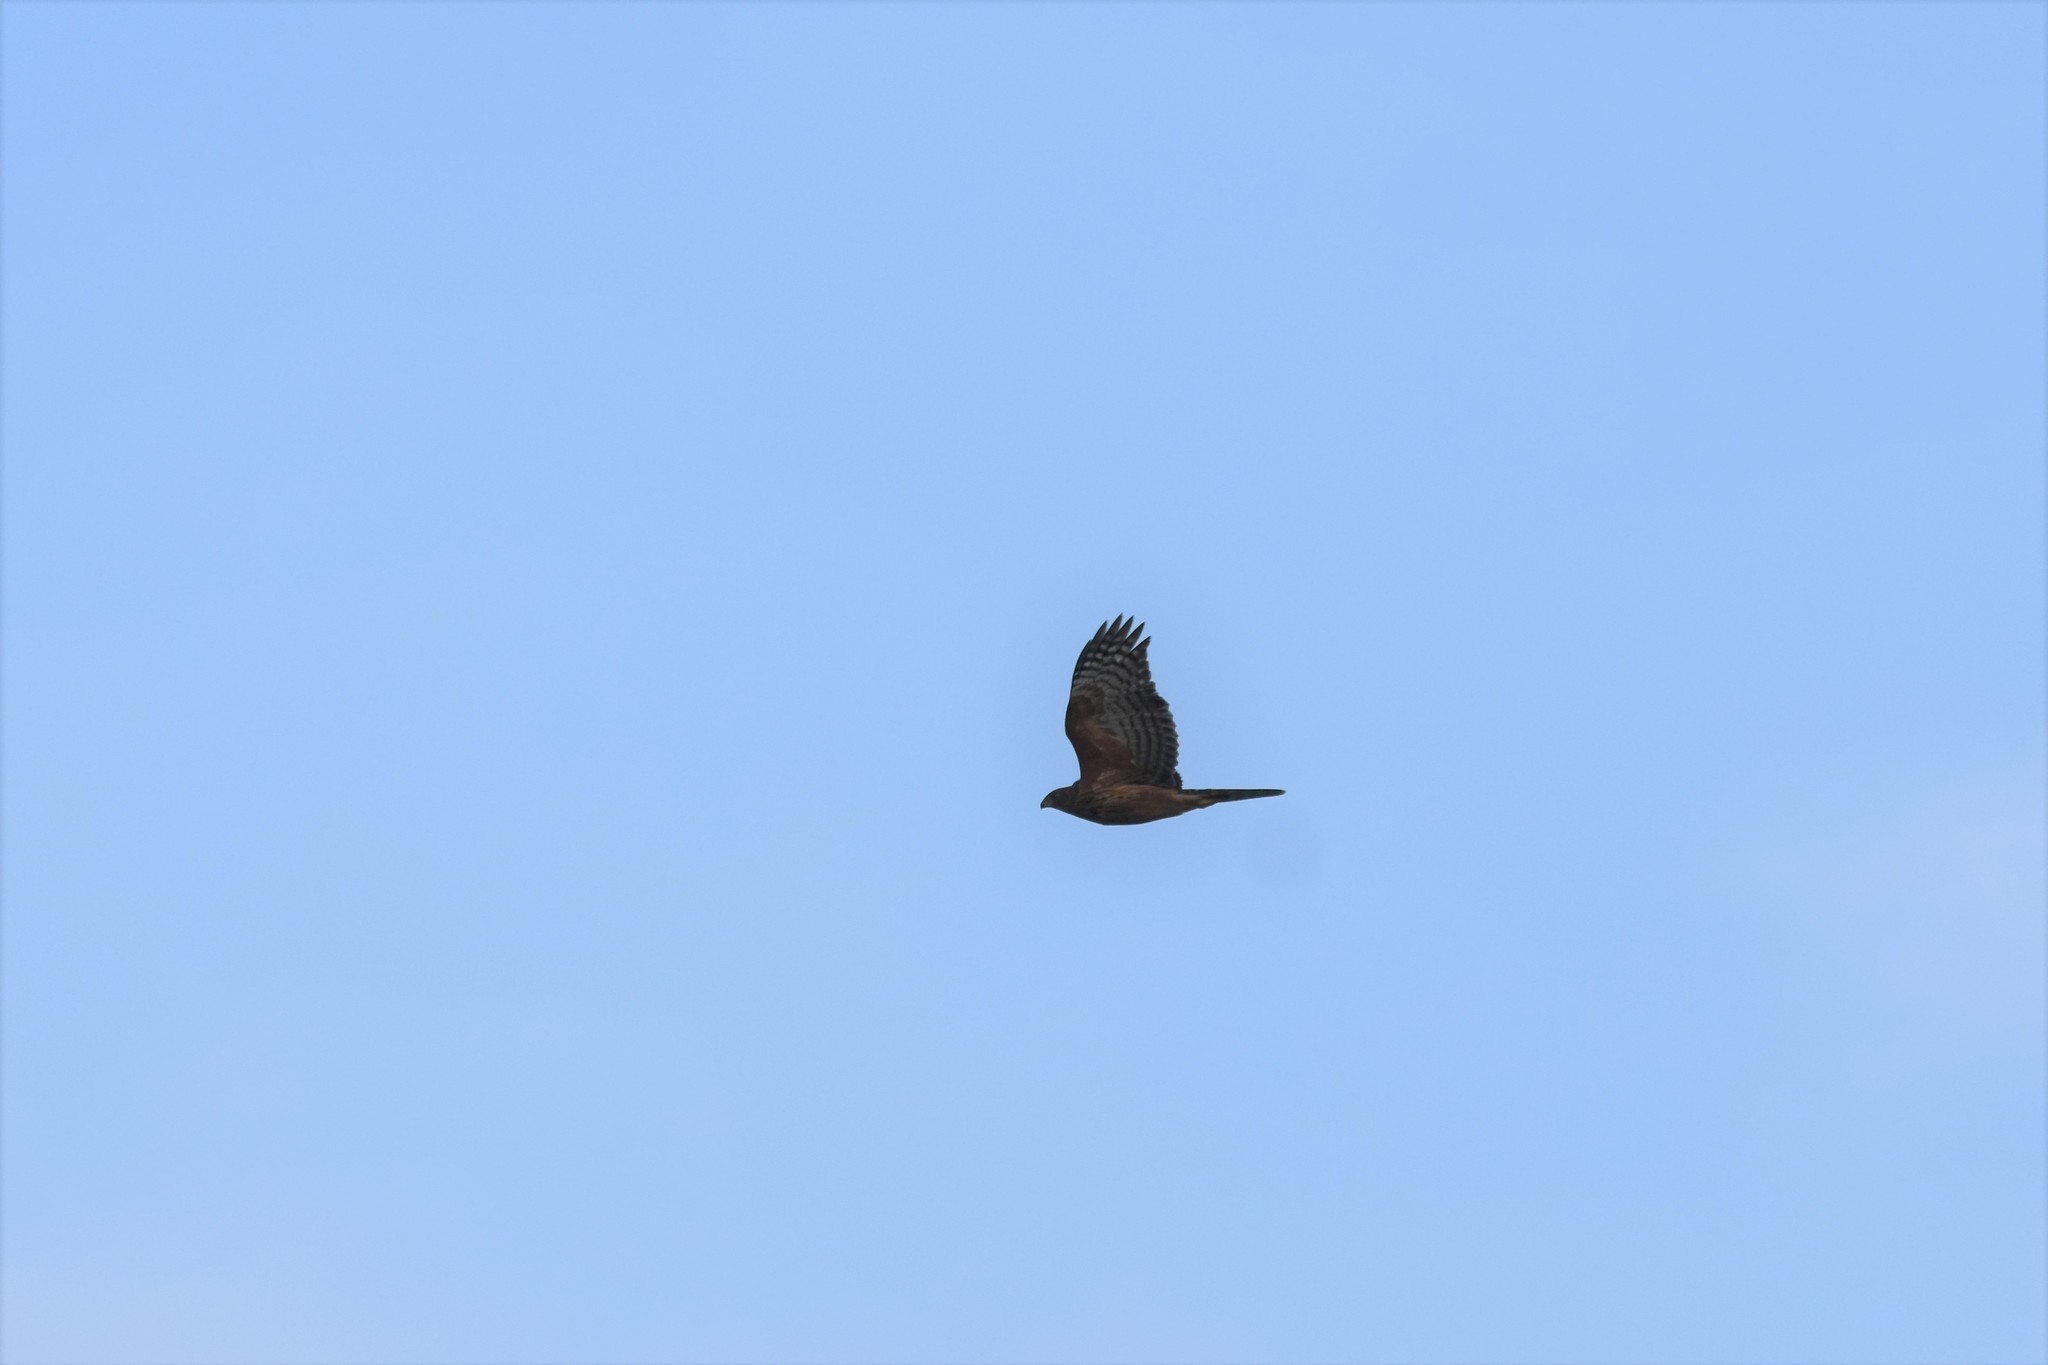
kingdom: Animalia
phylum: Chordata
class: Aves
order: Accipitriformes
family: Accipitridae
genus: Accipiter
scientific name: Accipiter melanoleucus
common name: Black sparrowhawk
